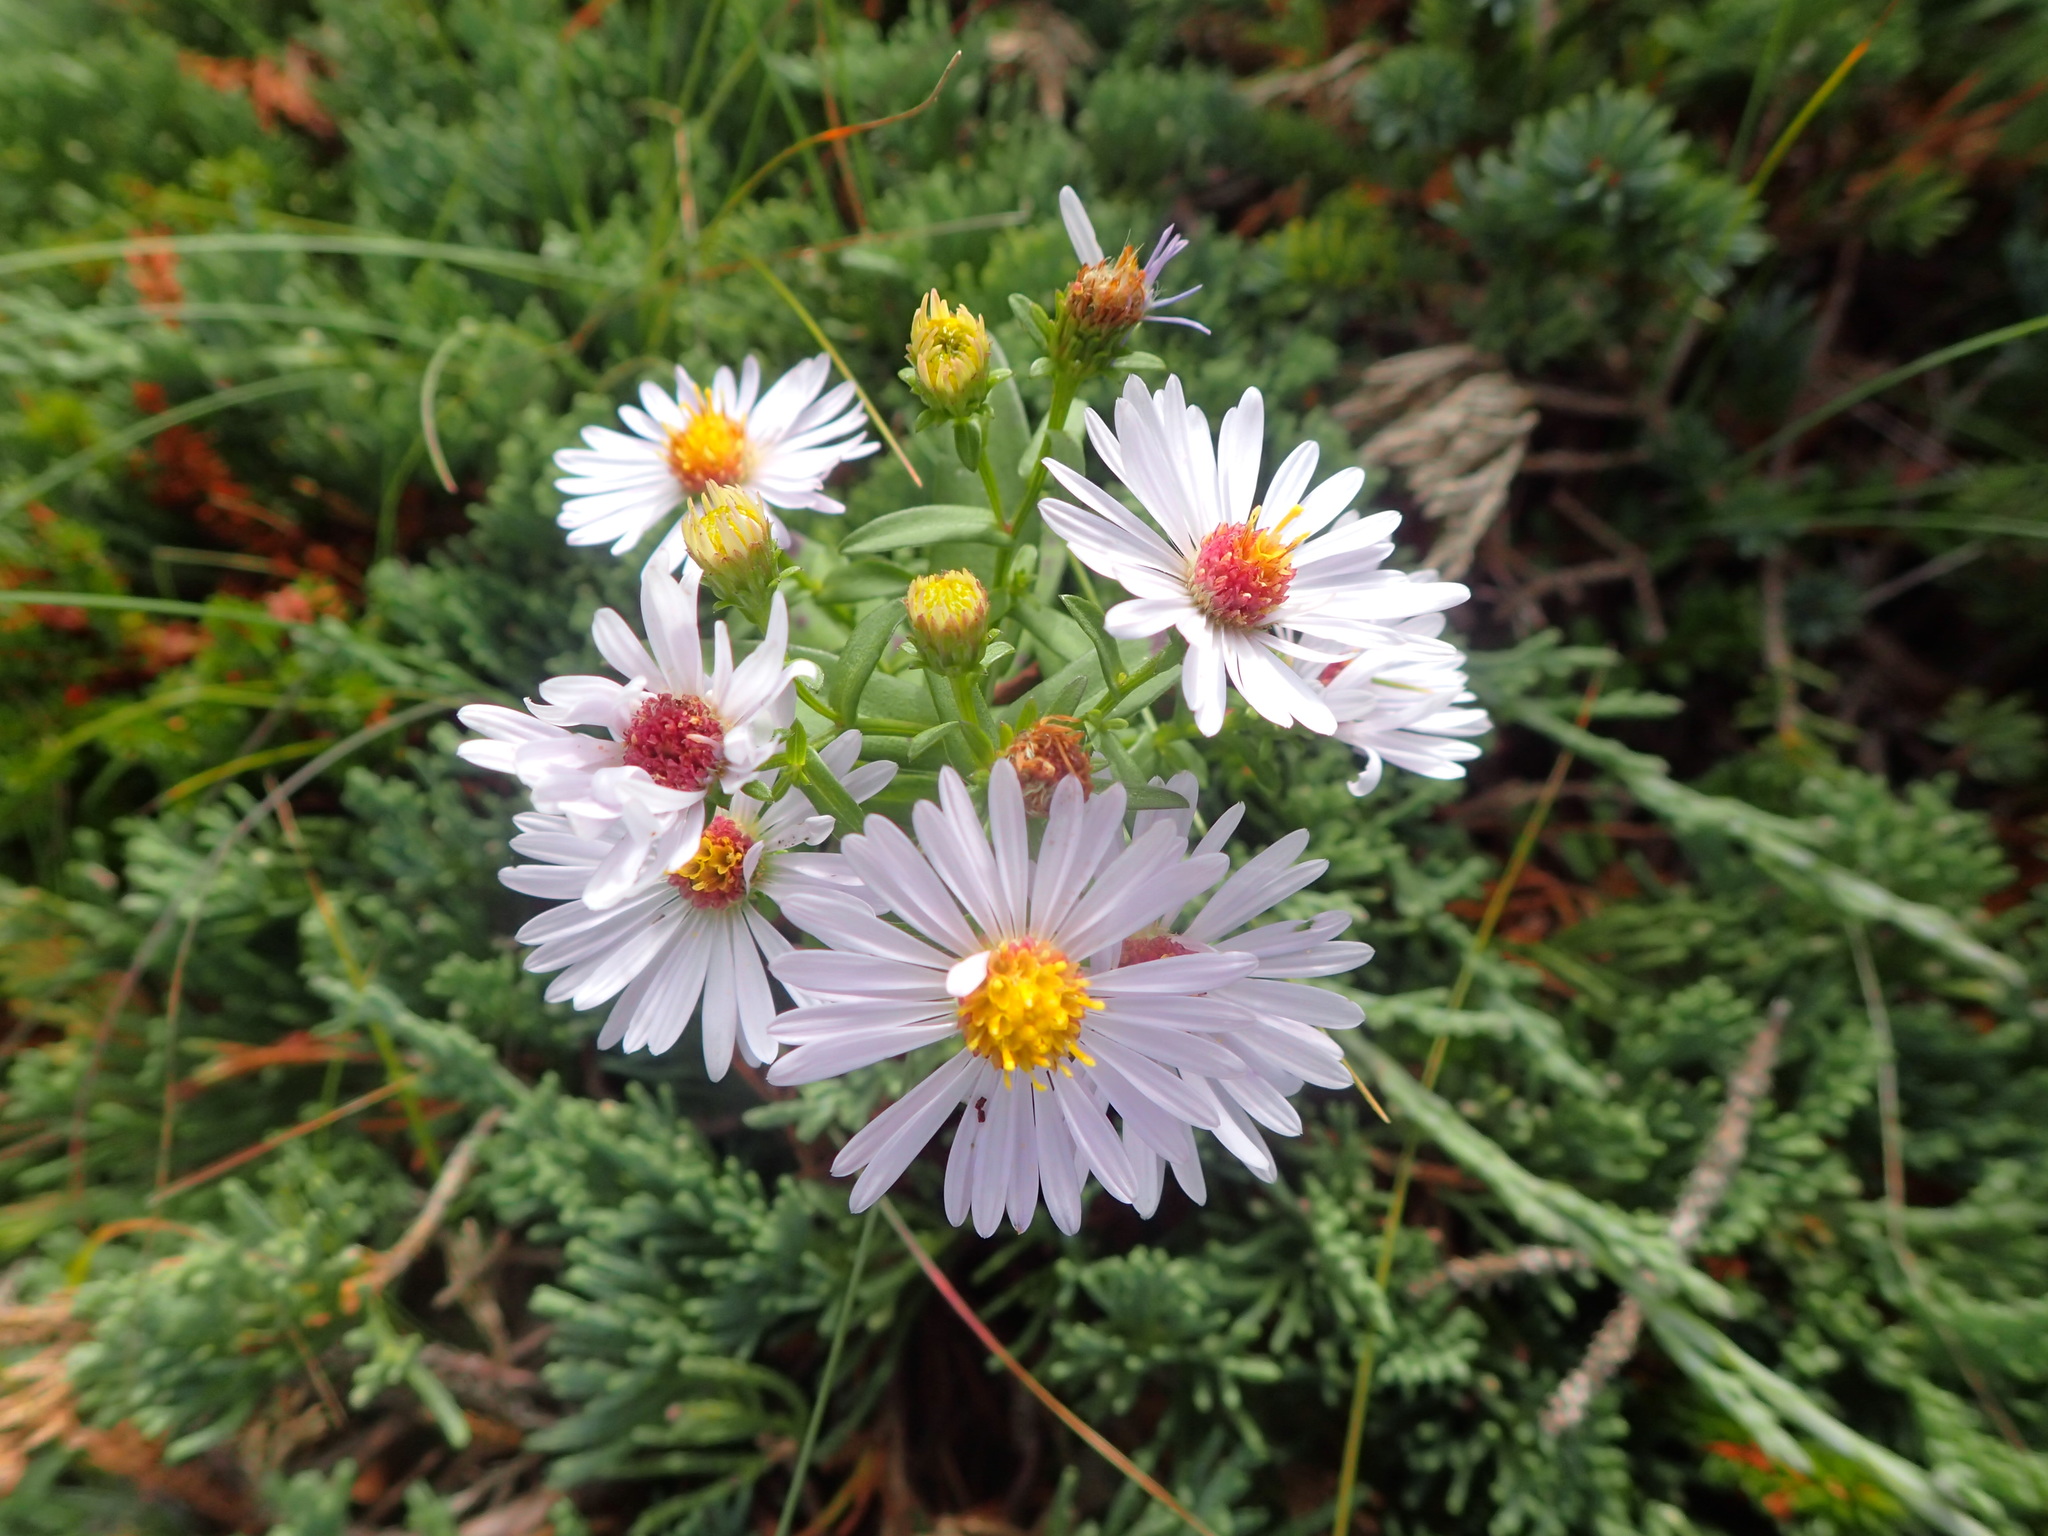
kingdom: Plantae
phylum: Tracheophyta
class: Magnoliopsida
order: Asterales
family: Asteraceae
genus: Symphyotrichum
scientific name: Symphyotrichum novi-belgii
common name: Michaelmas daisy
